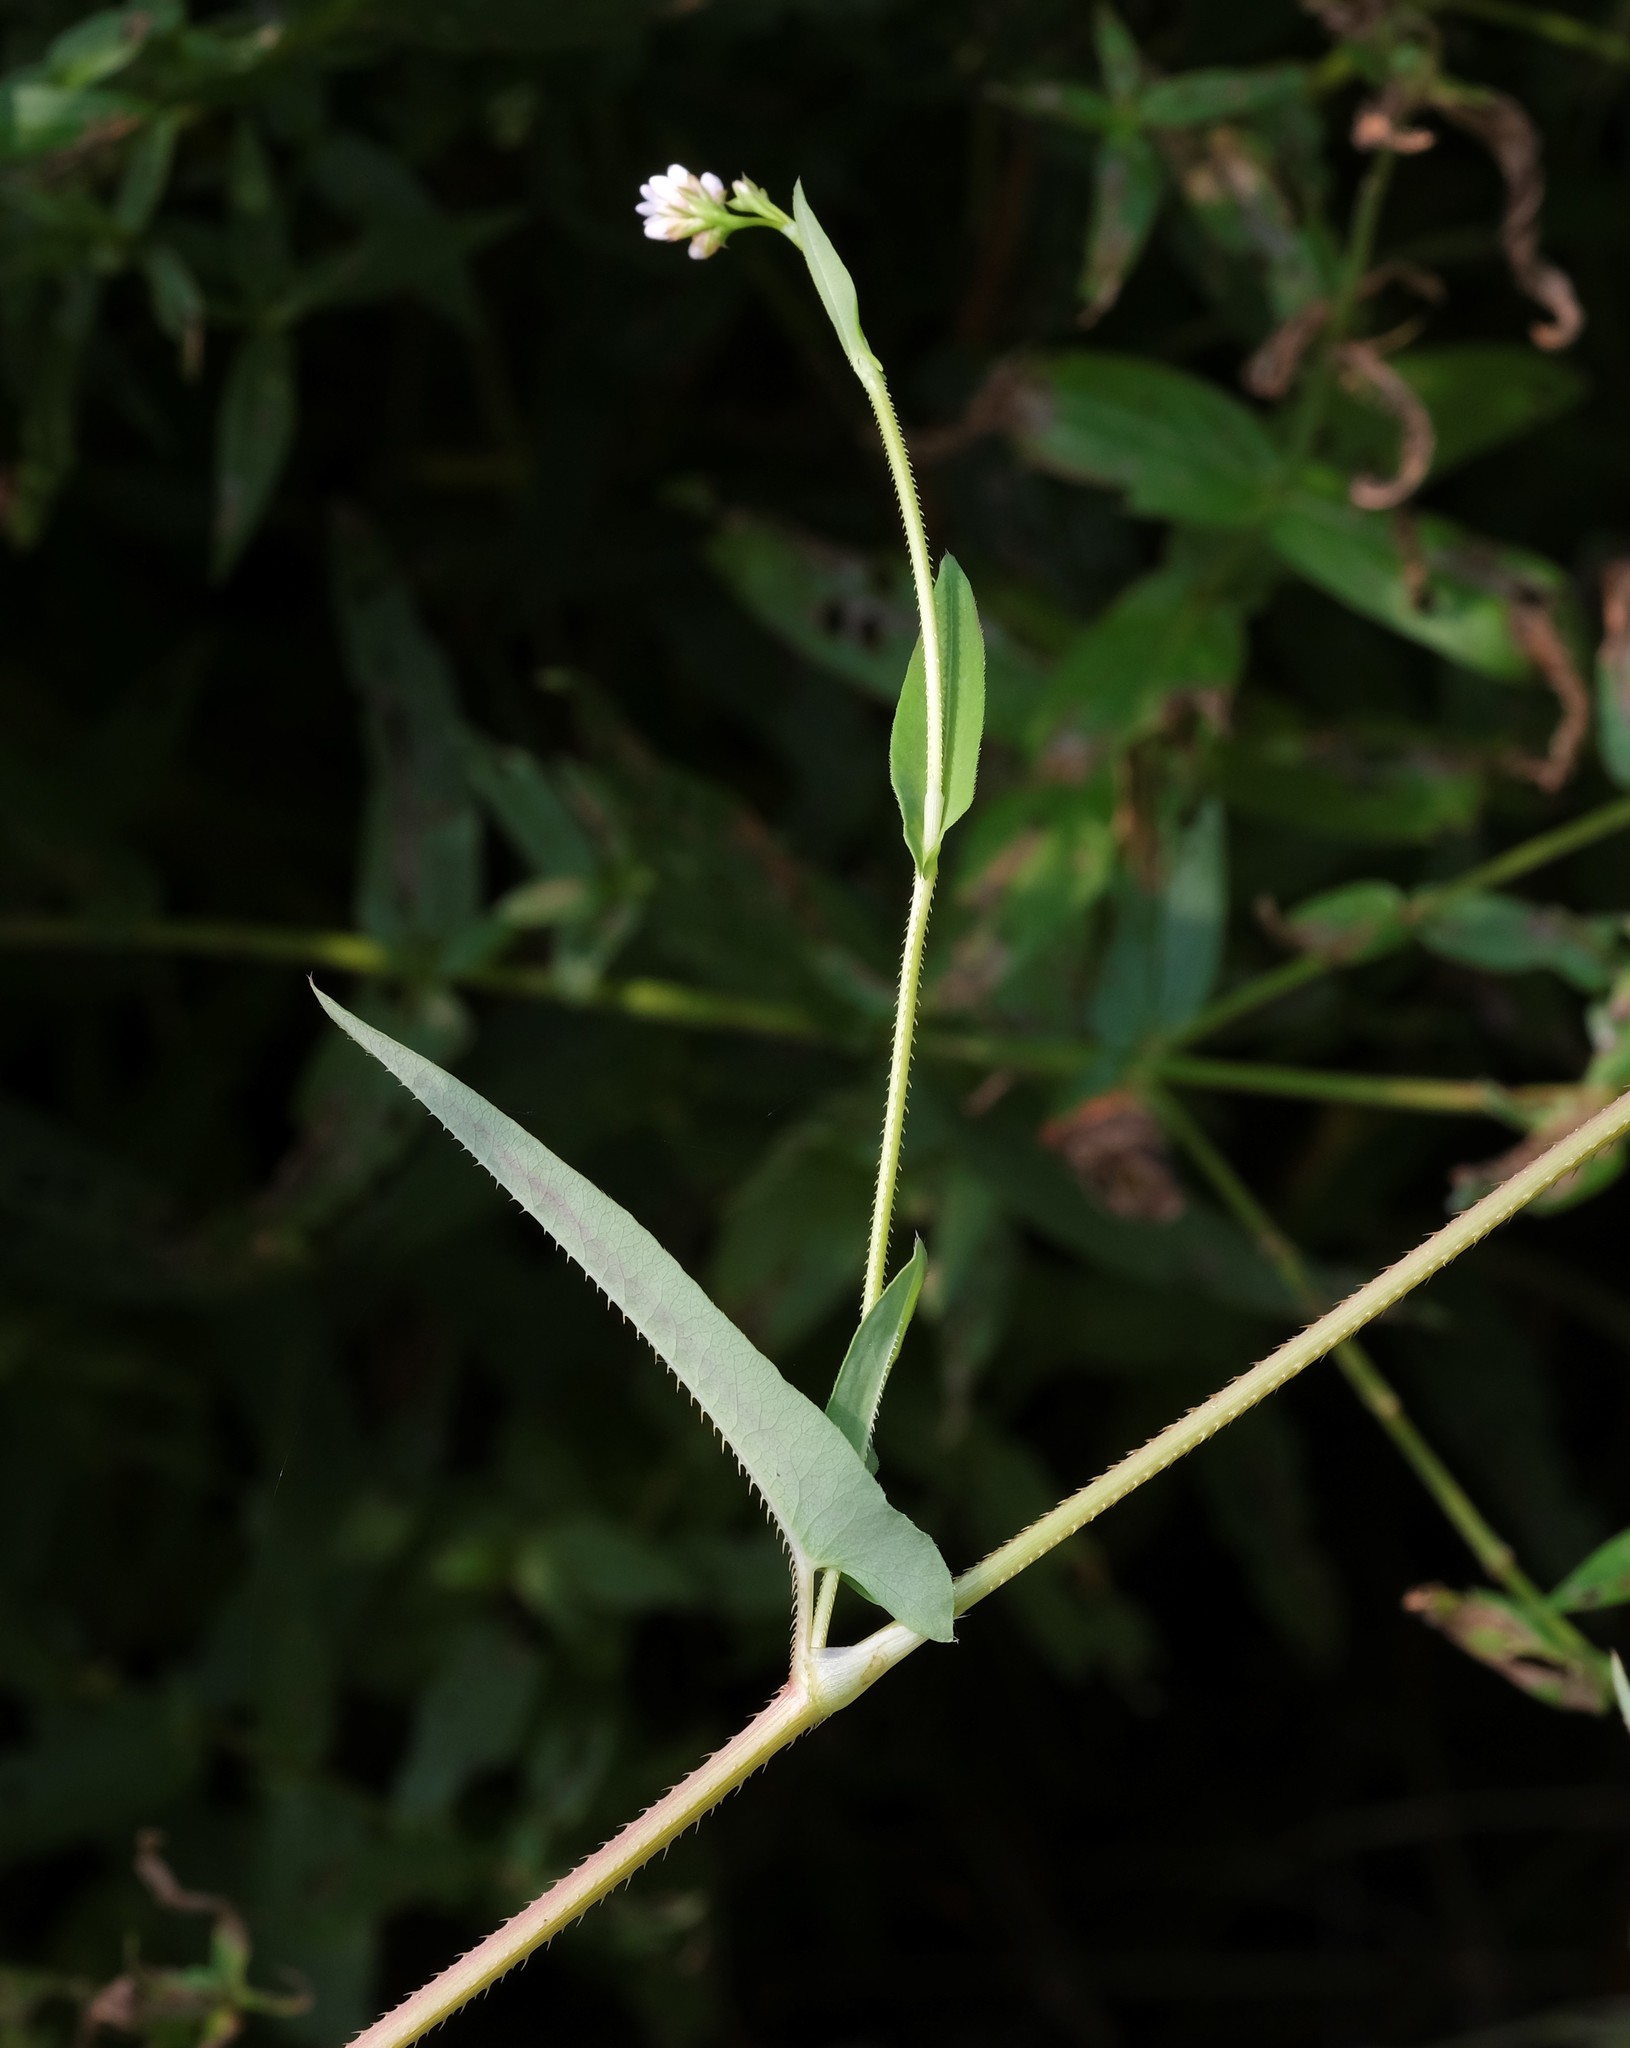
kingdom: Plantae
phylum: Tracheophyta
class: Magnoliopsida
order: Caryophyllales
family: Polygonaceae
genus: Persicaria
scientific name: Persicaria sagittata
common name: American tearthumb
